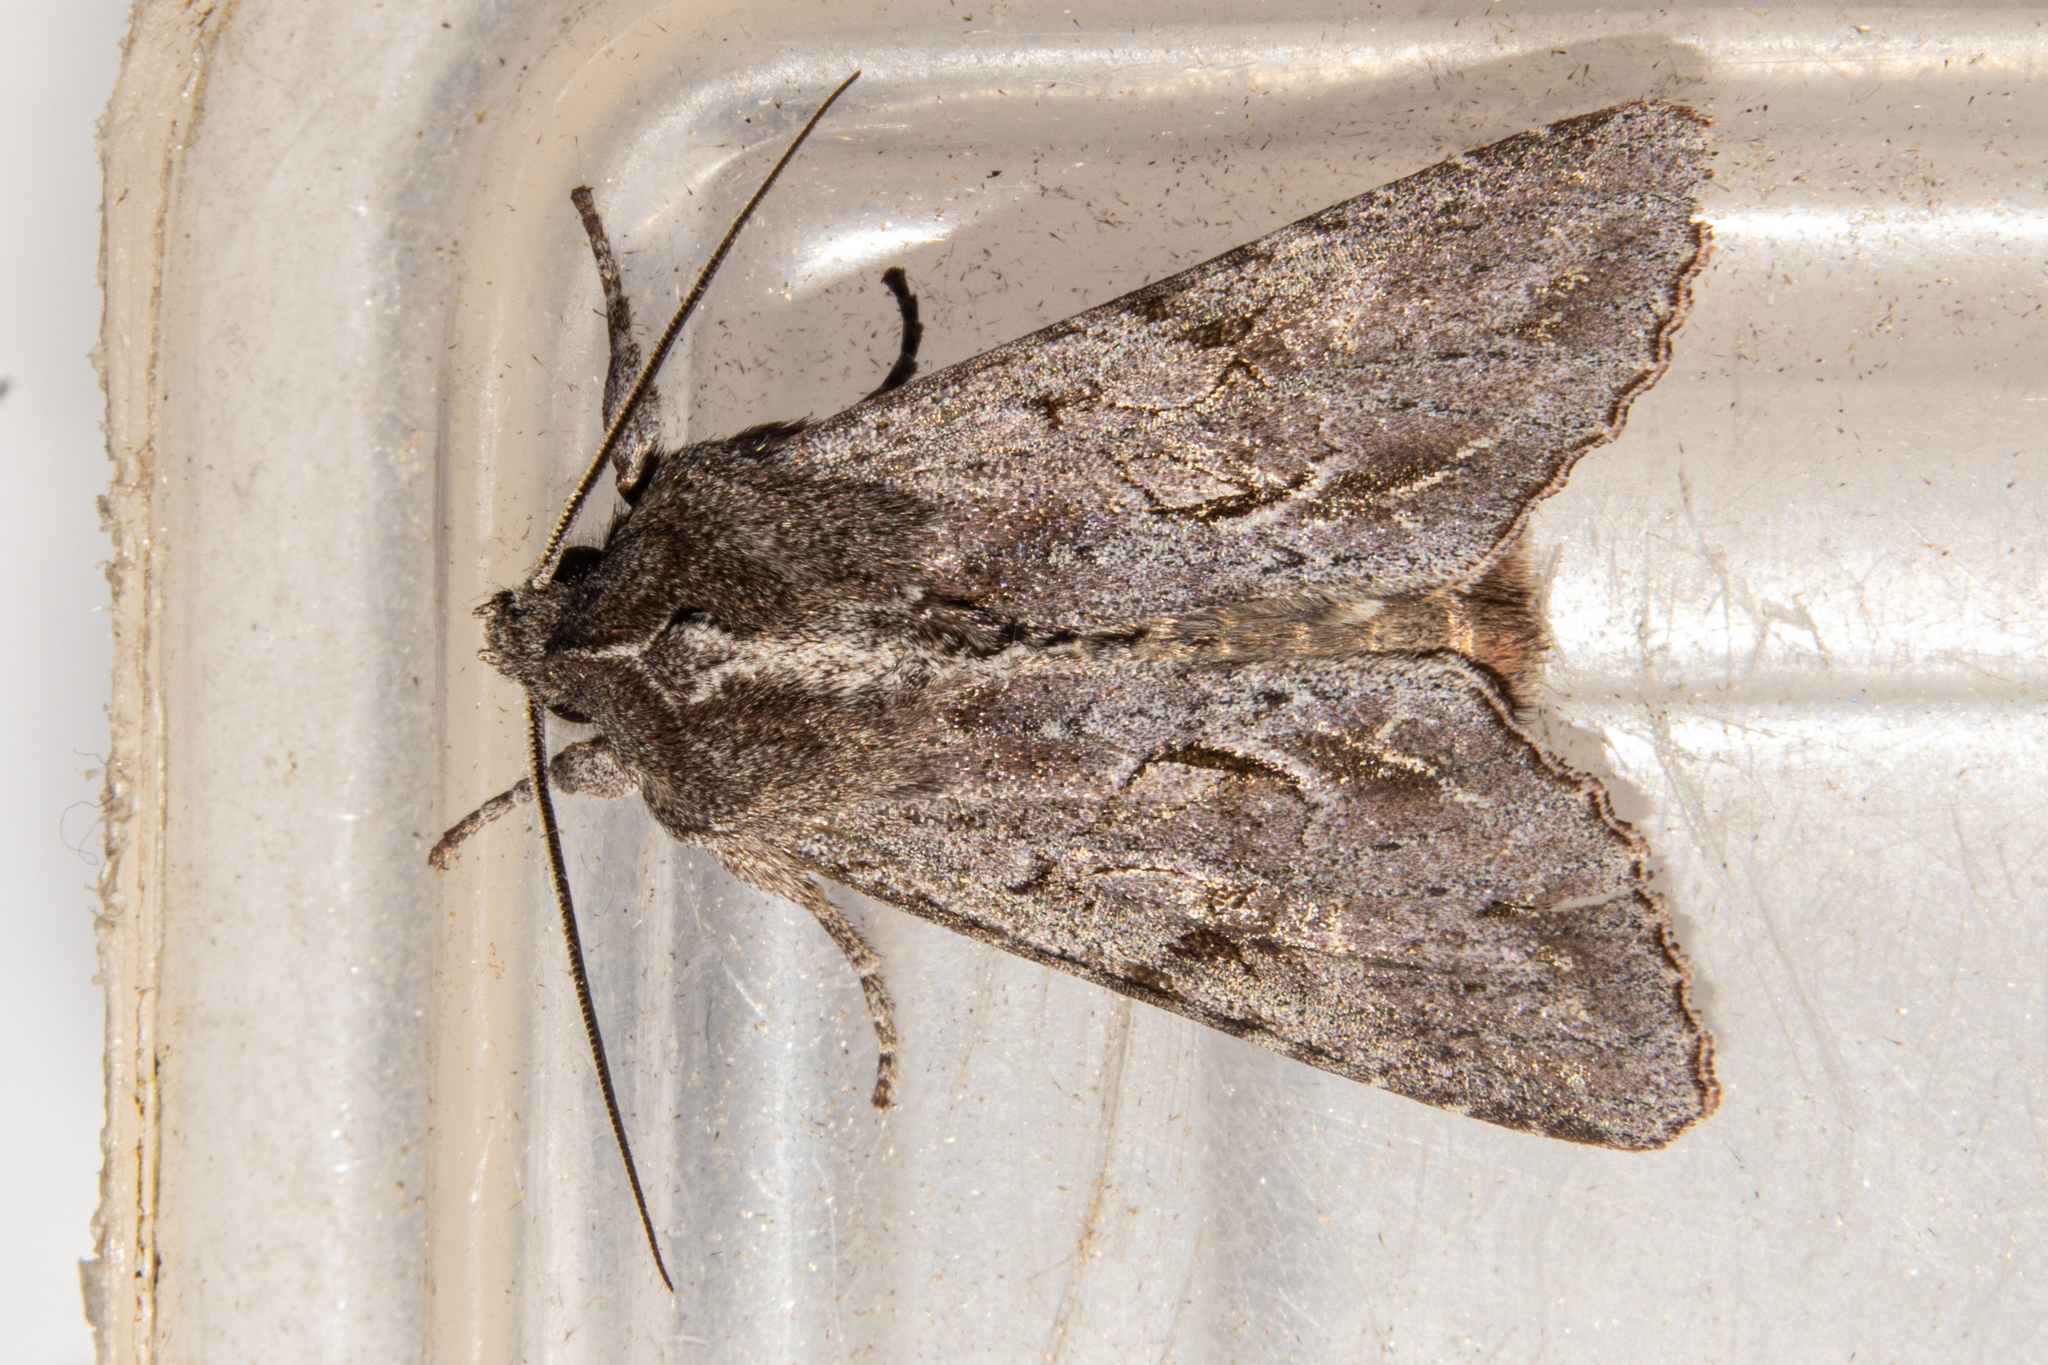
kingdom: Animalia
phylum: Arthropoda
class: Insecta
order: Lepidoptera
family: Noctuidae
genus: Ichneutica
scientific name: Ichneutica
